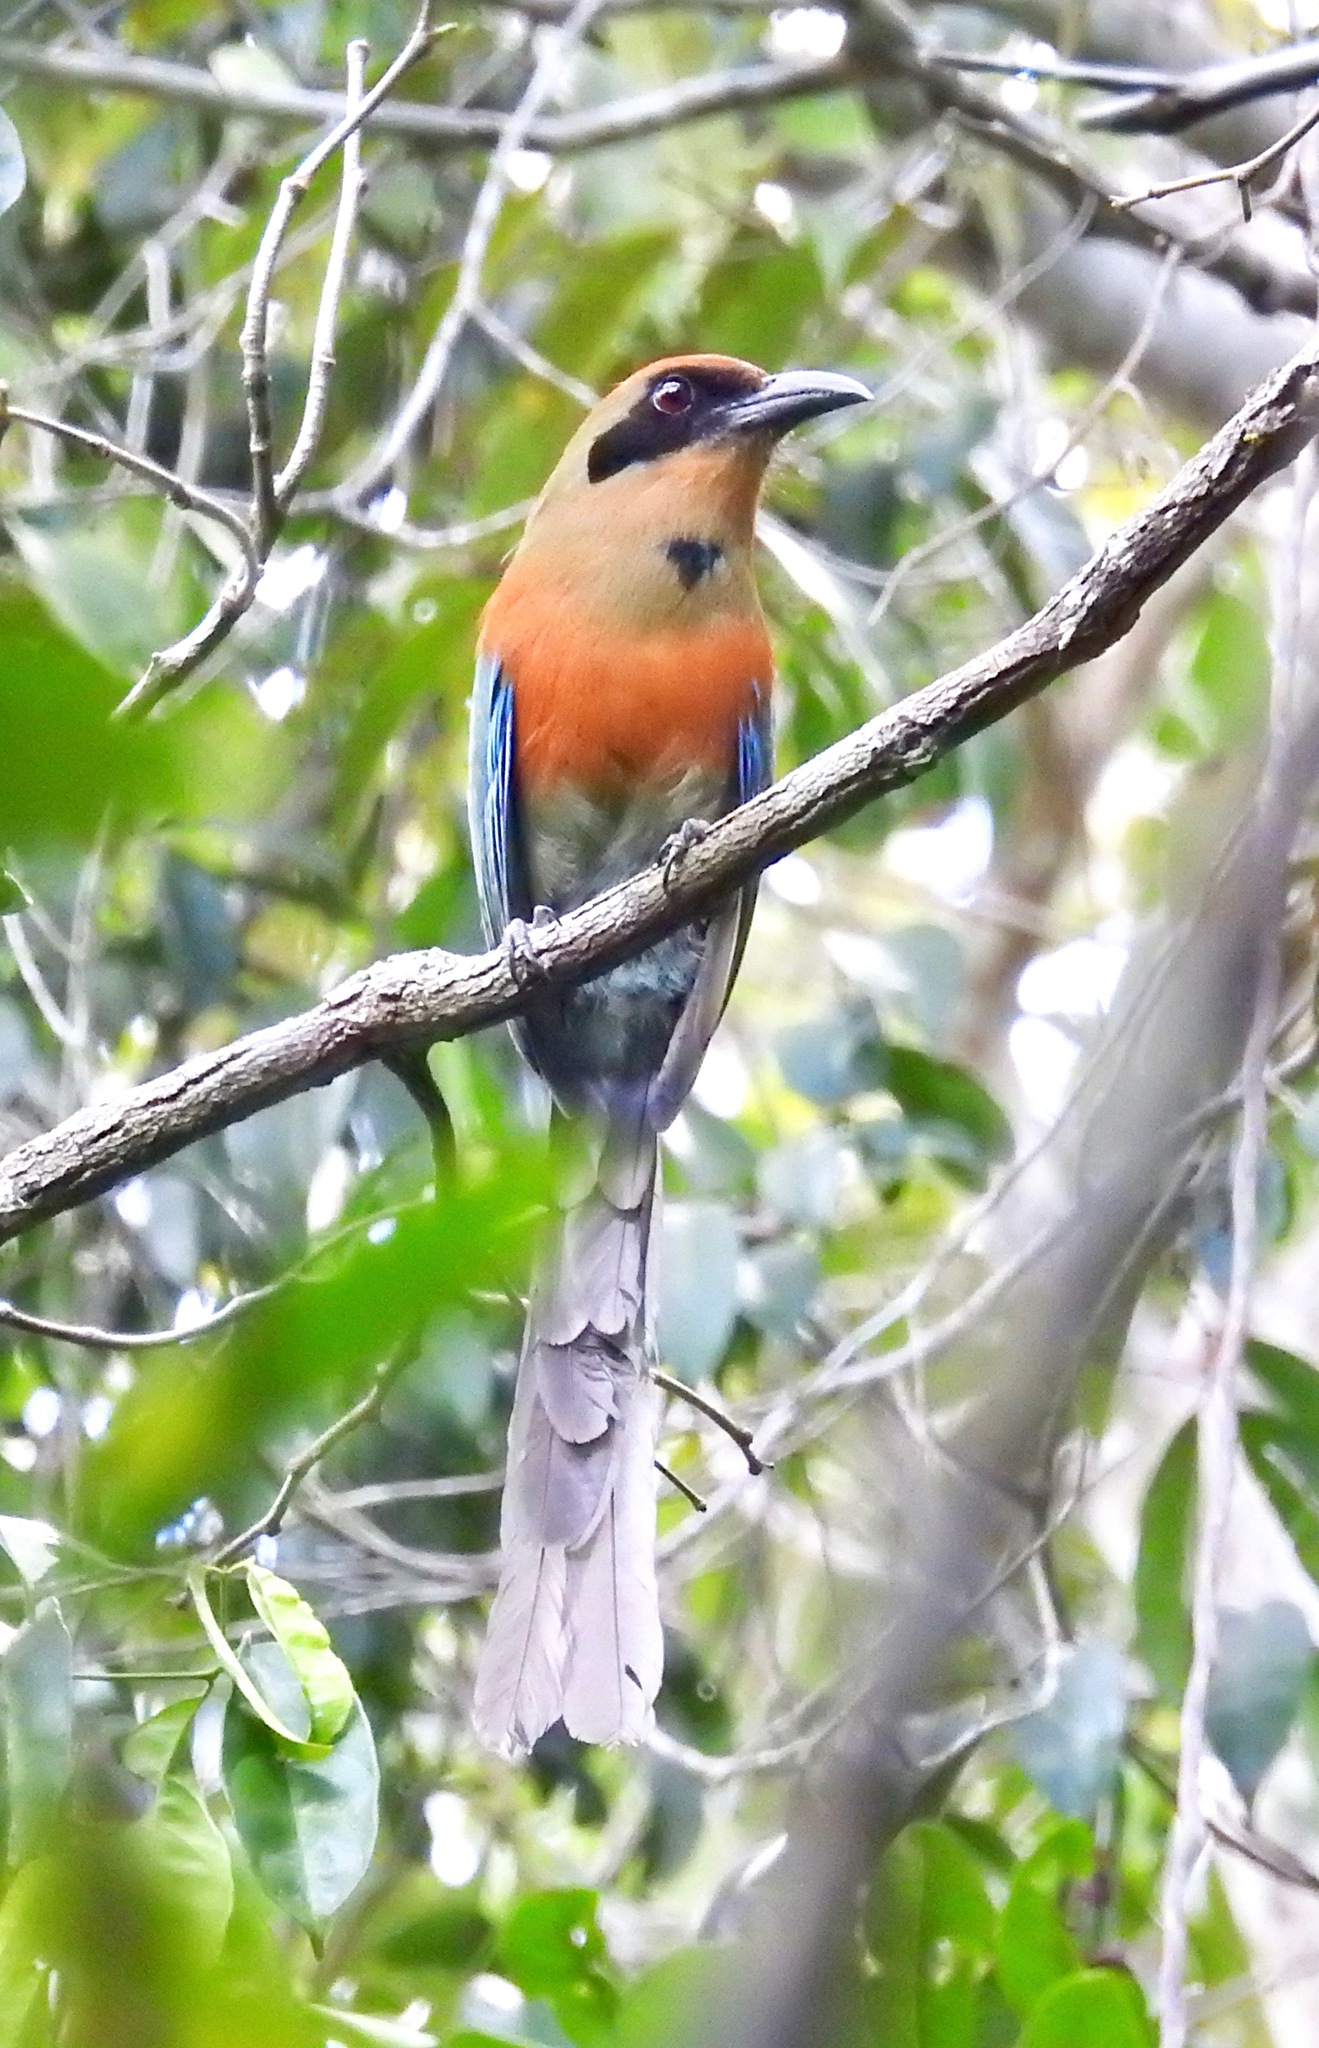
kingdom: Animalia
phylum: Chordata
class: Aves
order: Coraciiformes
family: Momotidae
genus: Baryphthengus
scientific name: Baryphthengus ruficapillus
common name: Rufous-capped motmot
